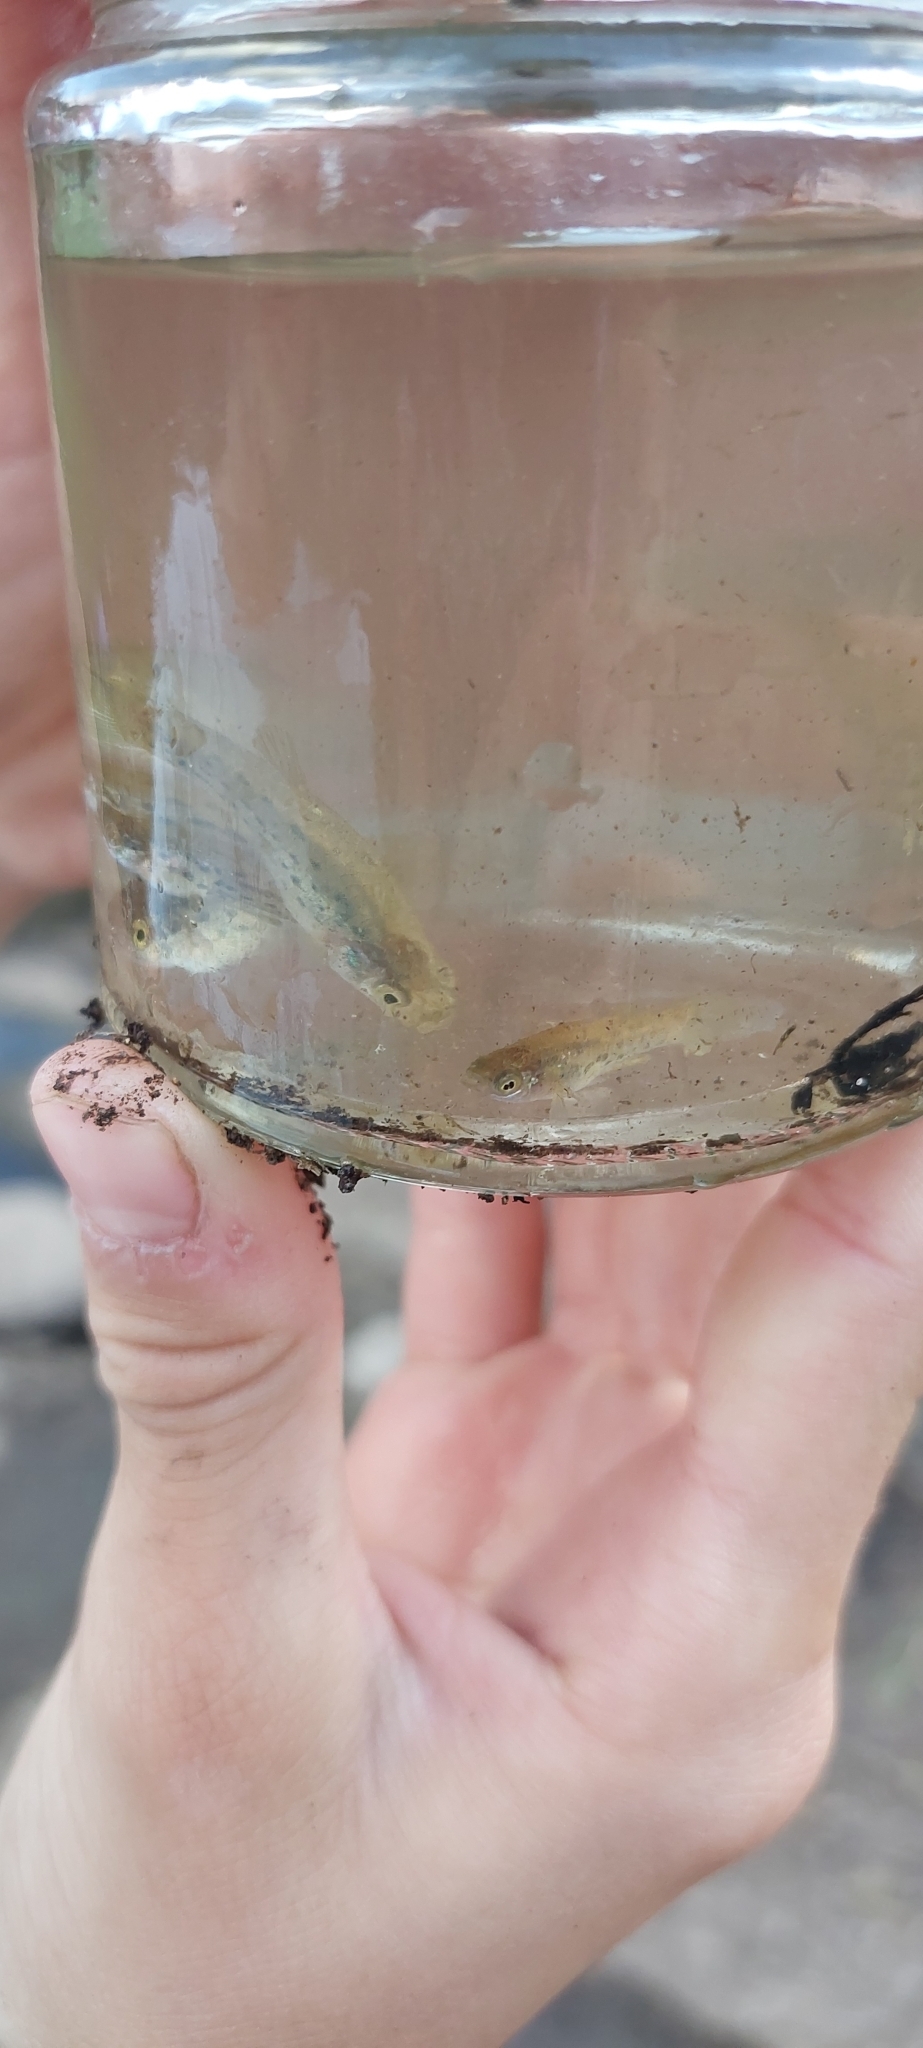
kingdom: Animalia
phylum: Chordata
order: Cyprinodontiformes
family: Anablepidae
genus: Jenynsia
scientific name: Jenynsia lineata
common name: Onesided livebearer
